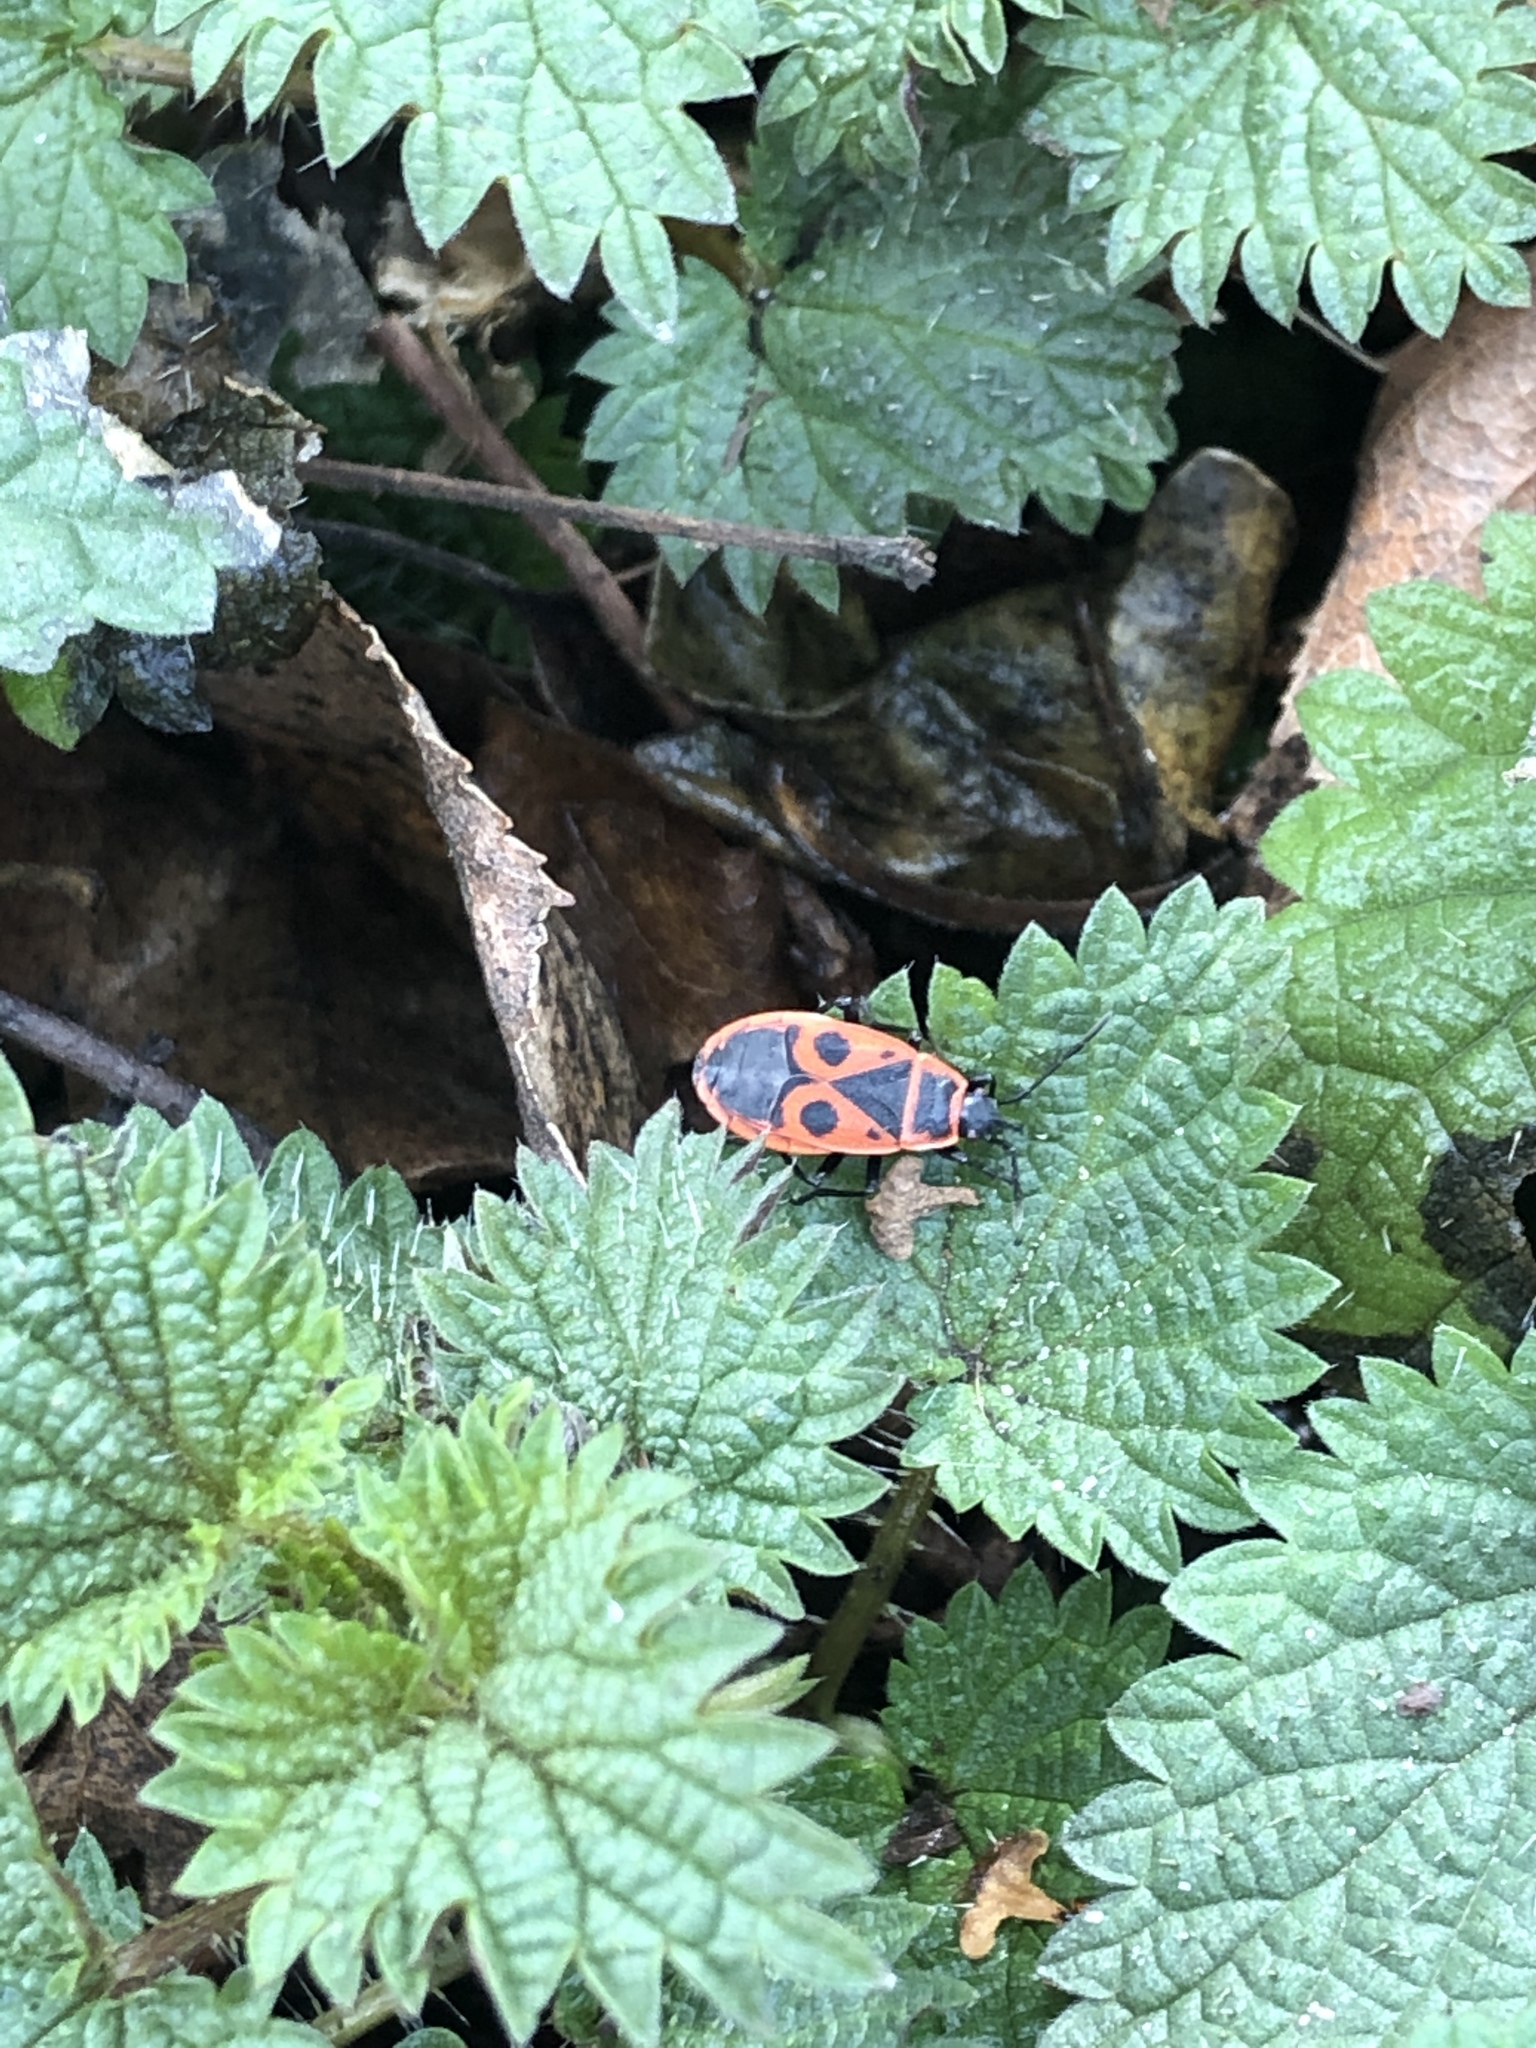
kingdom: Animalia
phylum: Arthropoda
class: Insecta
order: Hemiptera
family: Pyrrhocoridae
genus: Pyrrhocoris
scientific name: Pyrrhocoris apterus
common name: Firebug
